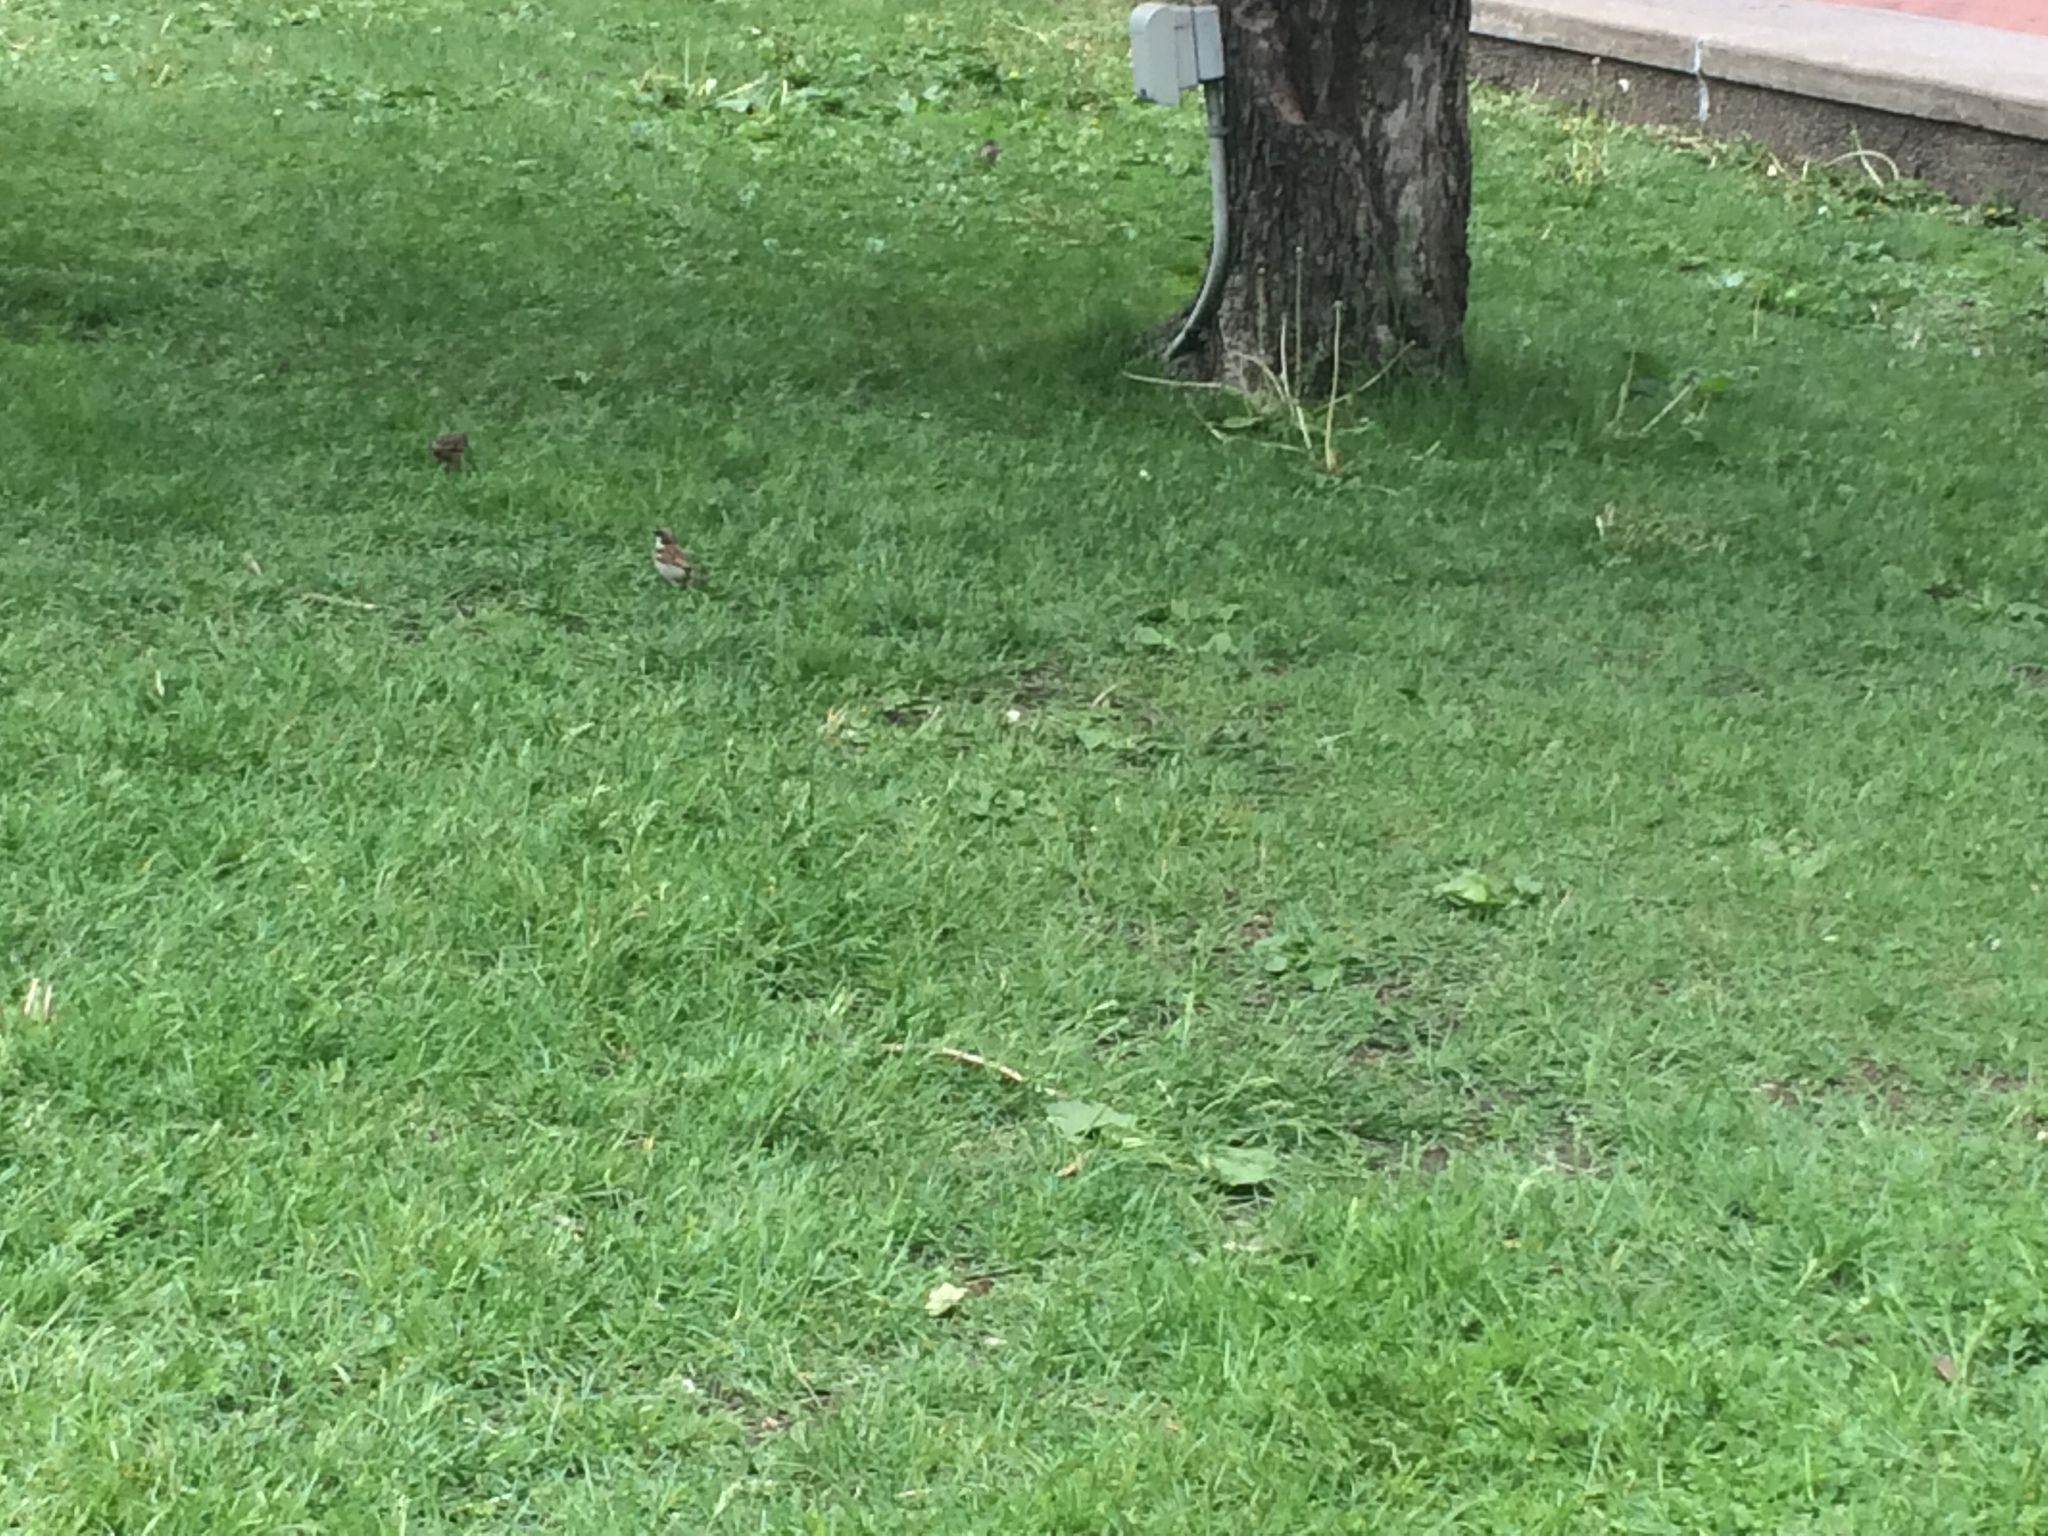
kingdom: Animalia
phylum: Chordata
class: Aves
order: Passeriformes
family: Passeridae
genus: Passer
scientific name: Passer domesticus
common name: House sparrow
